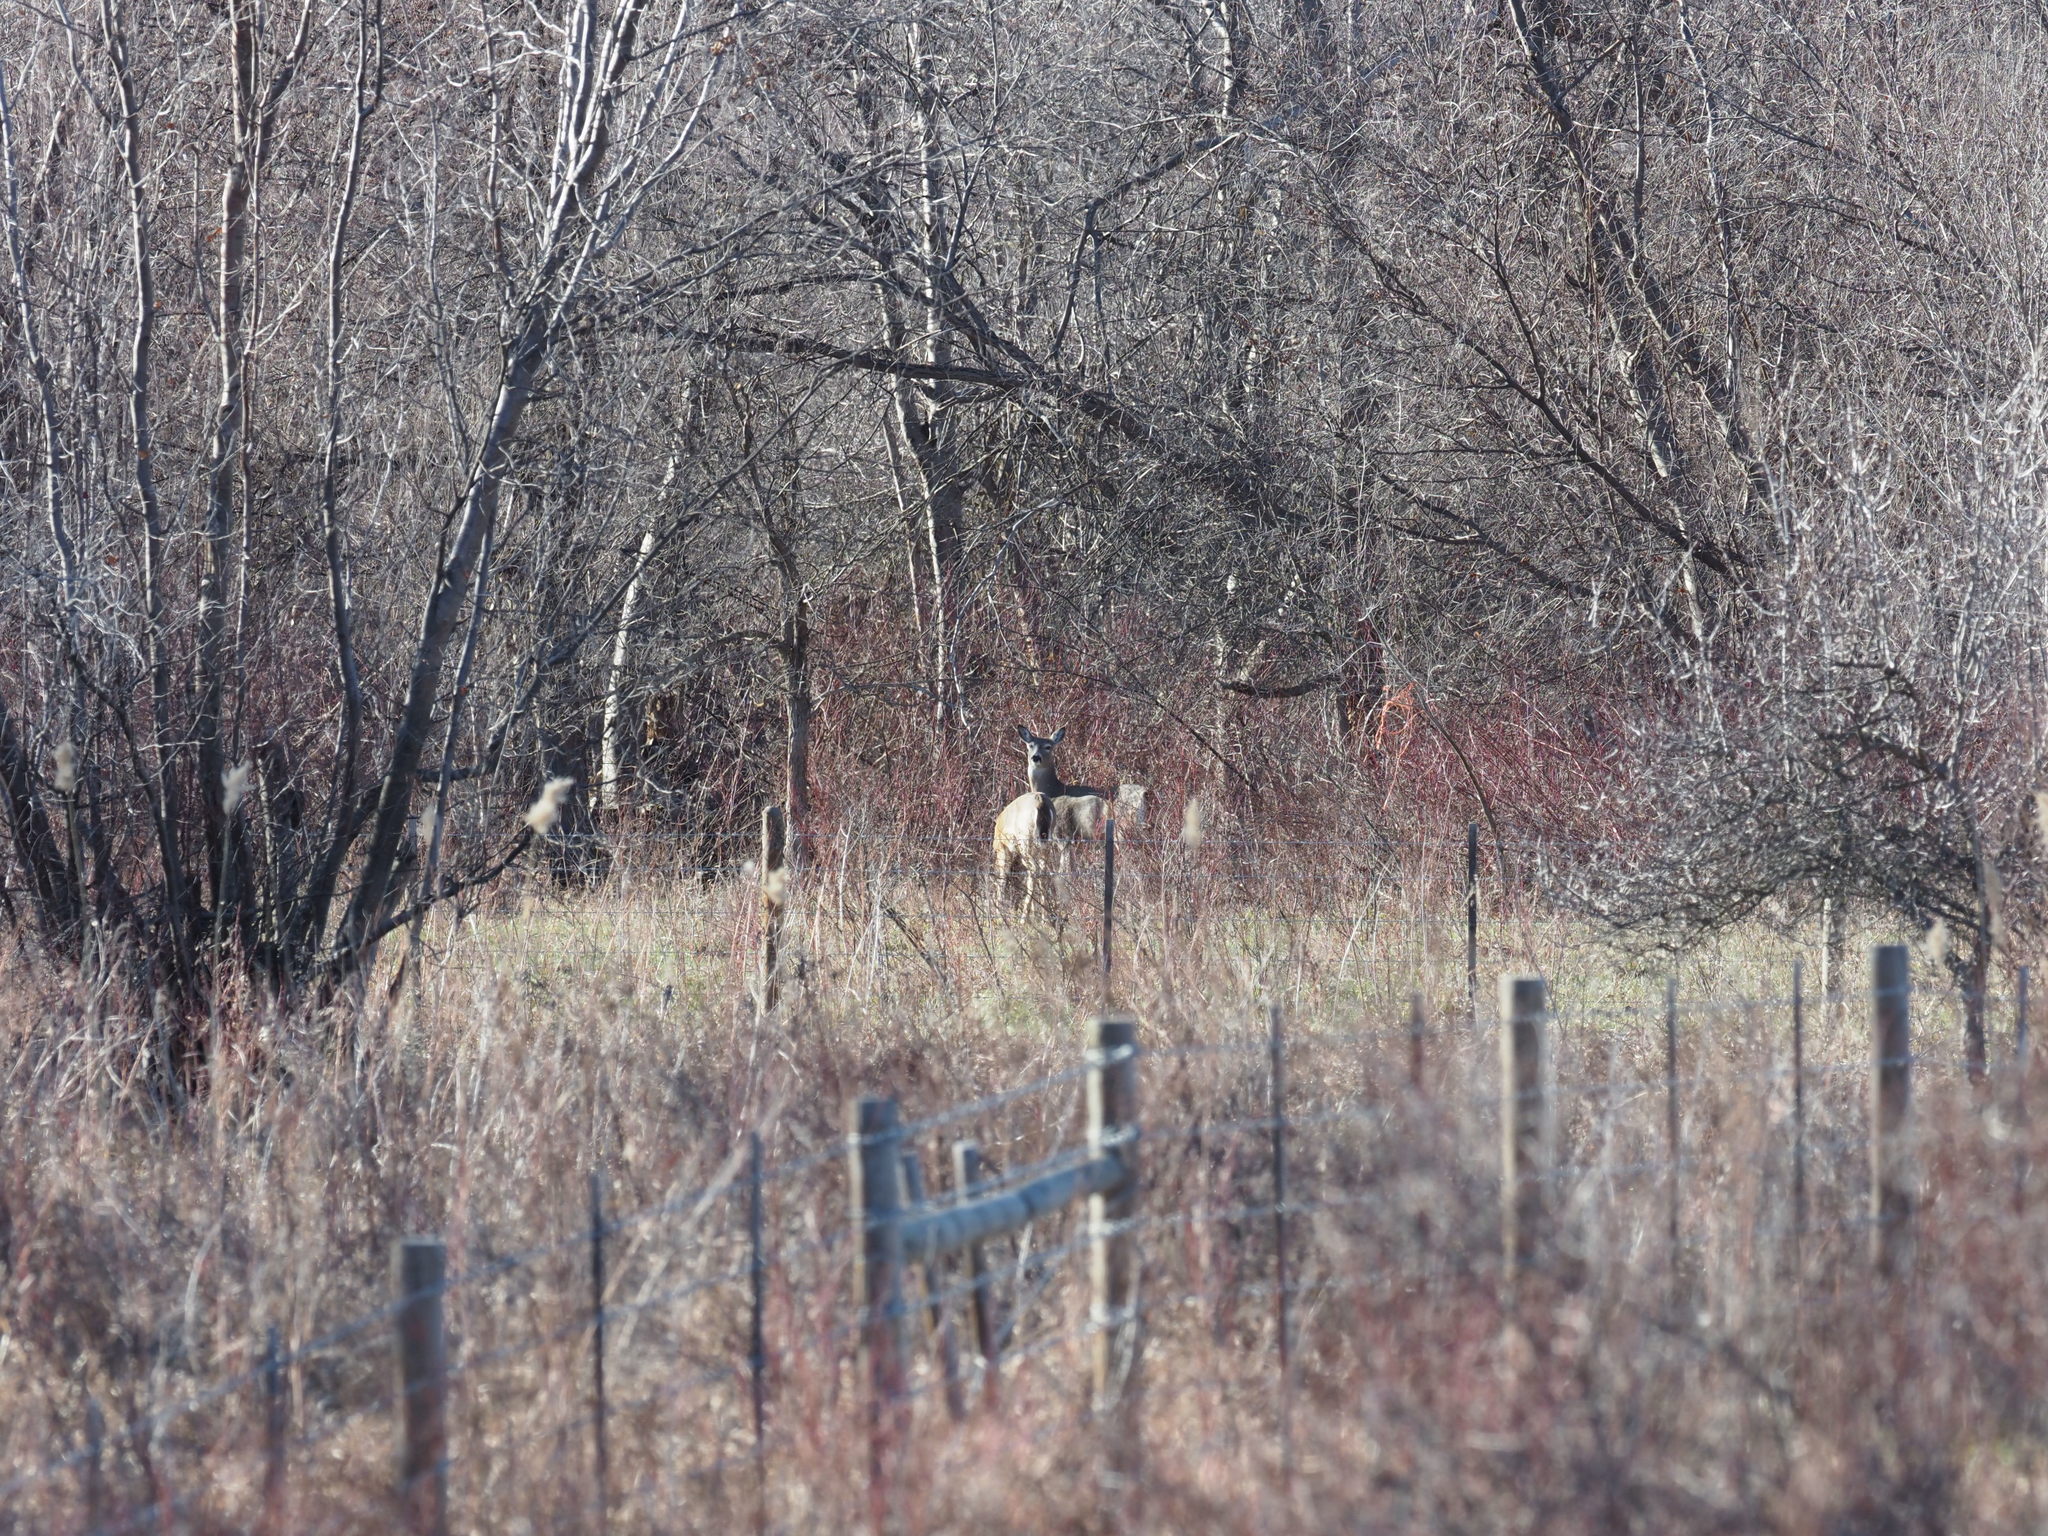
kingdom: Animalia
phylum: Chordata
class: Mammalia
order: Artiodactyla
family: Cervidae
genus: Odocoileus
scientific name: Odocoileus virginianus
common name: White-tailed deer
